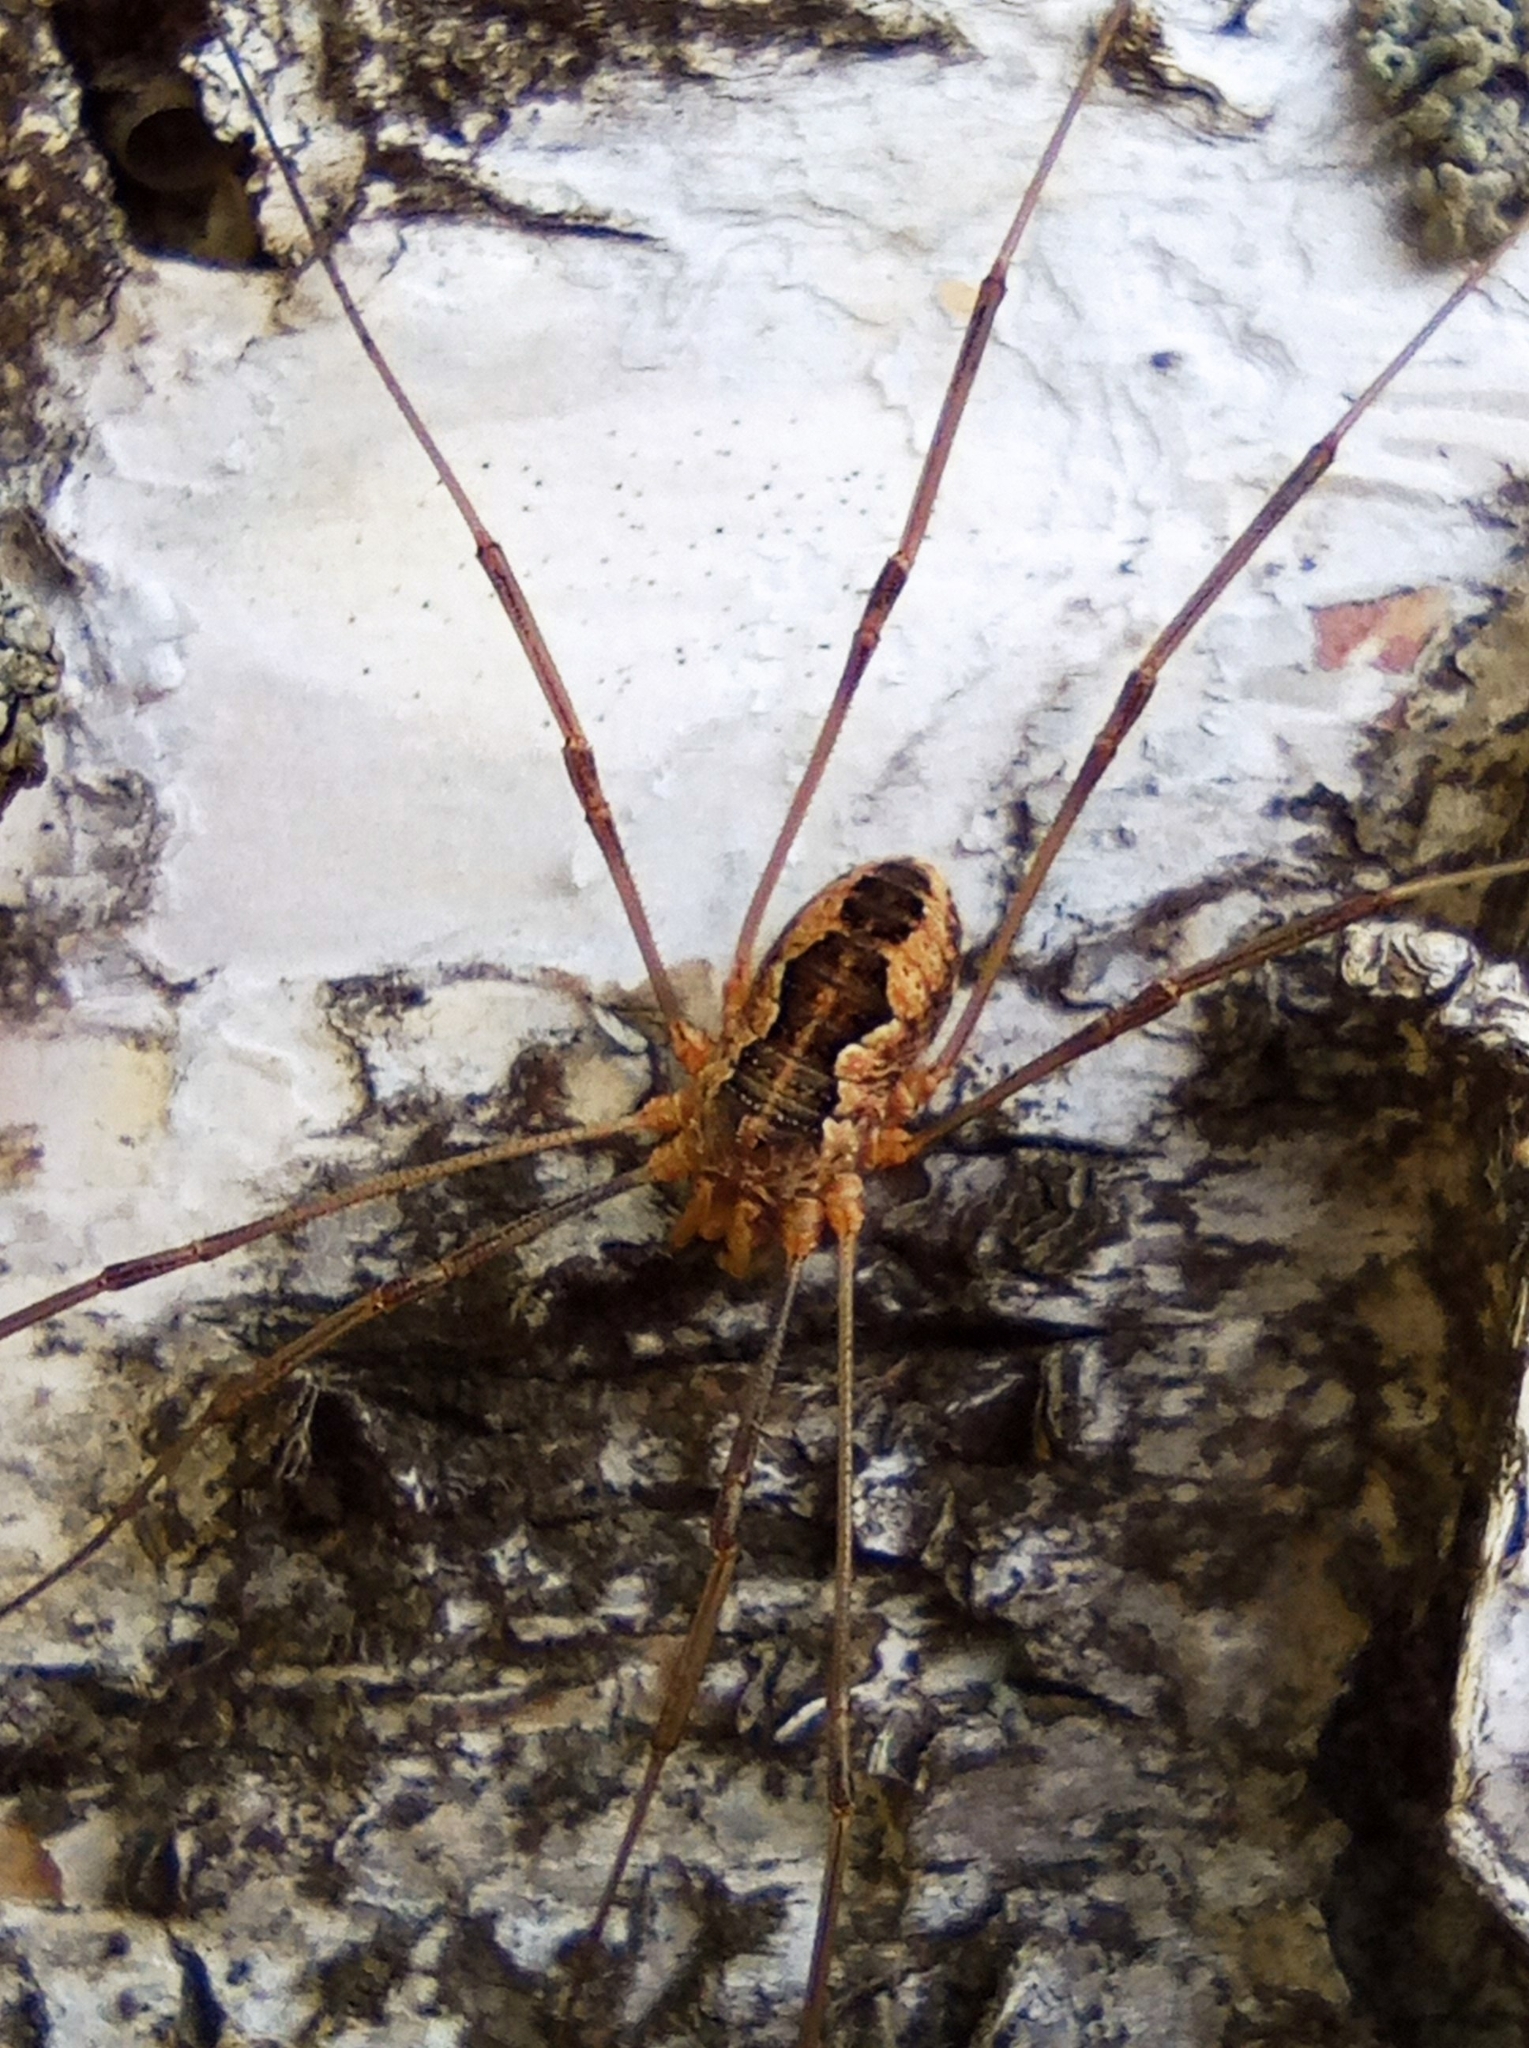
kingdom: Animalia
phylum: Arthropoda
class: Arachnida
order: Opiliones
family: Phalangiidae
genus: Phalangium
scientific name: Phalangium opilio
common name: Daddy longleg
